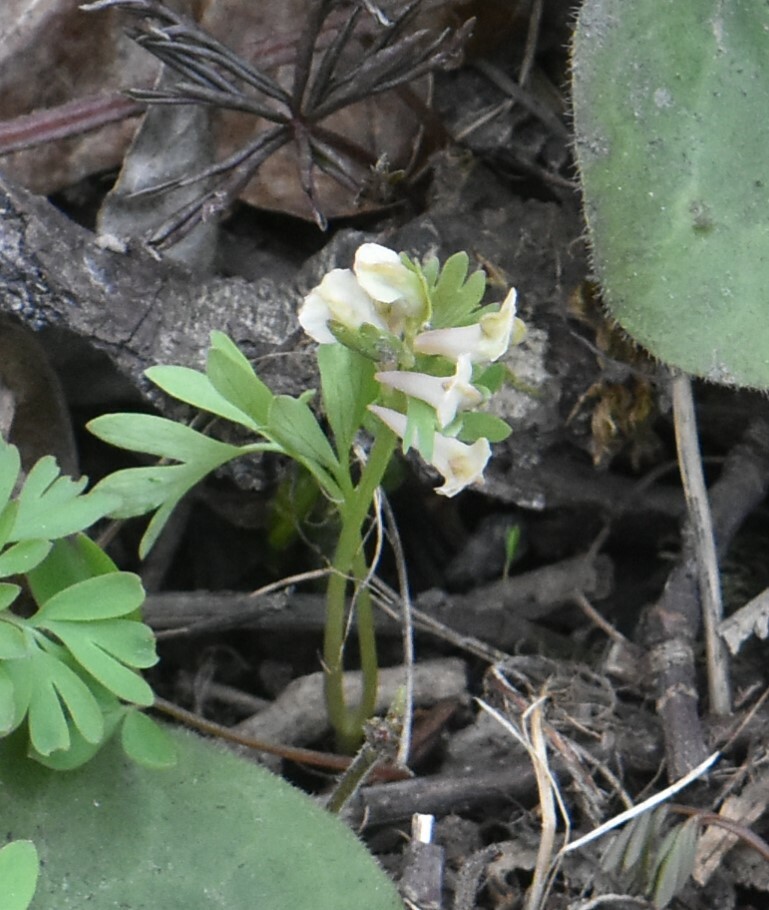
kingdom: Plantae
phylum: Tracheophyta
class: Magnoliopsida
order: Ranunculales
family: Papaveraceae
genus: Corydalis
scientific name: Corydalis solida
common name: Bird-in-a-bush
